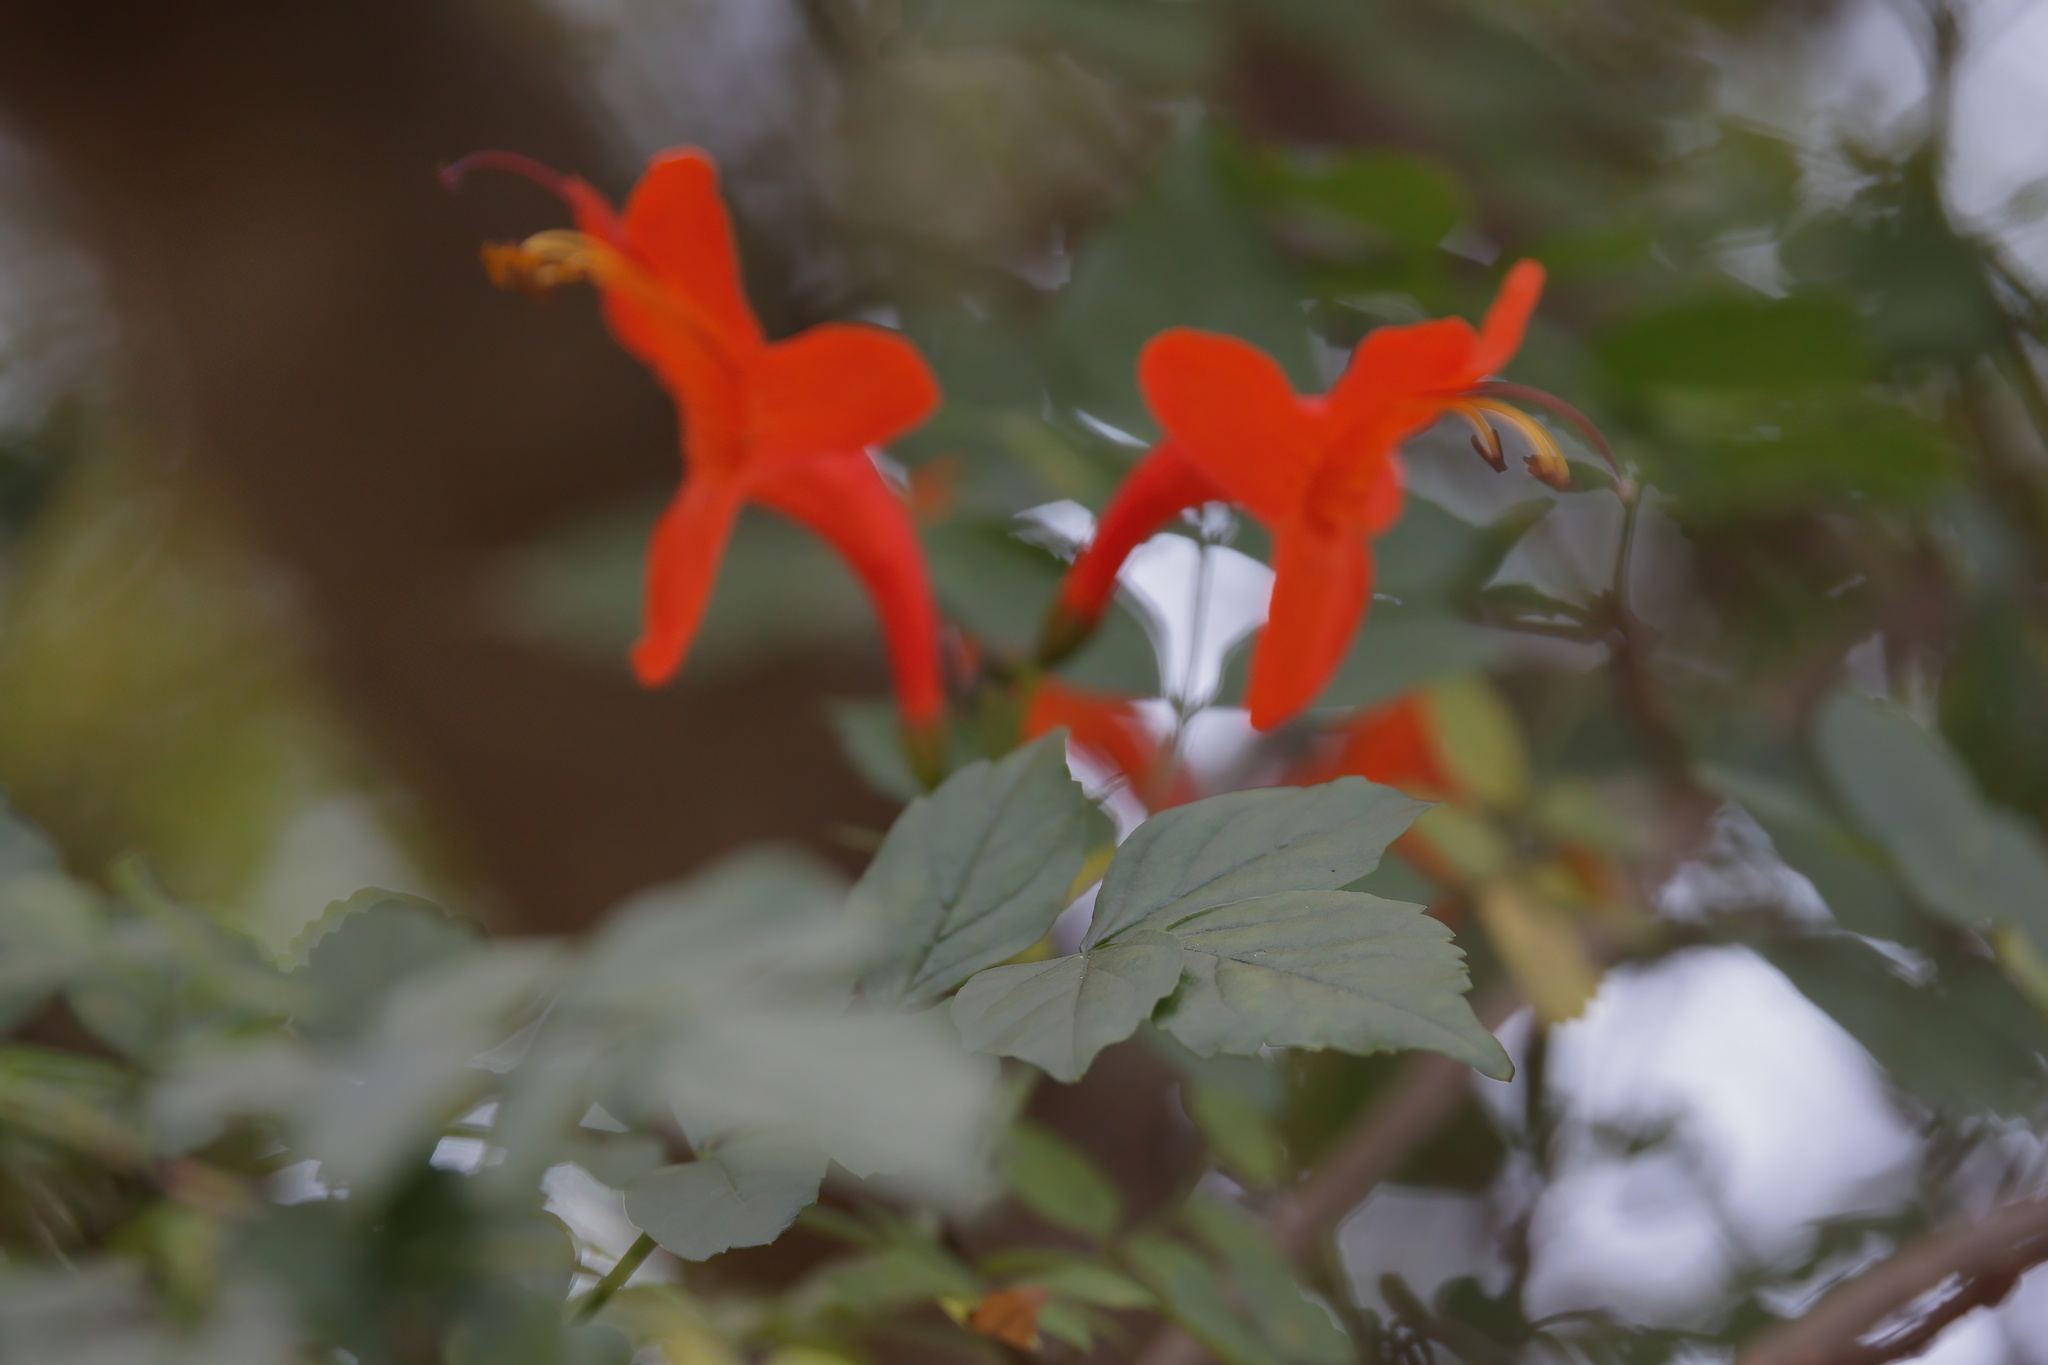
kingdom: Plantae
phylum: Tracheophyta
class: Magnoliopsida
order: Lamiales
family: Bignoniaceae
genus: Tecomaria
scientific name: Tecomaria capensis
